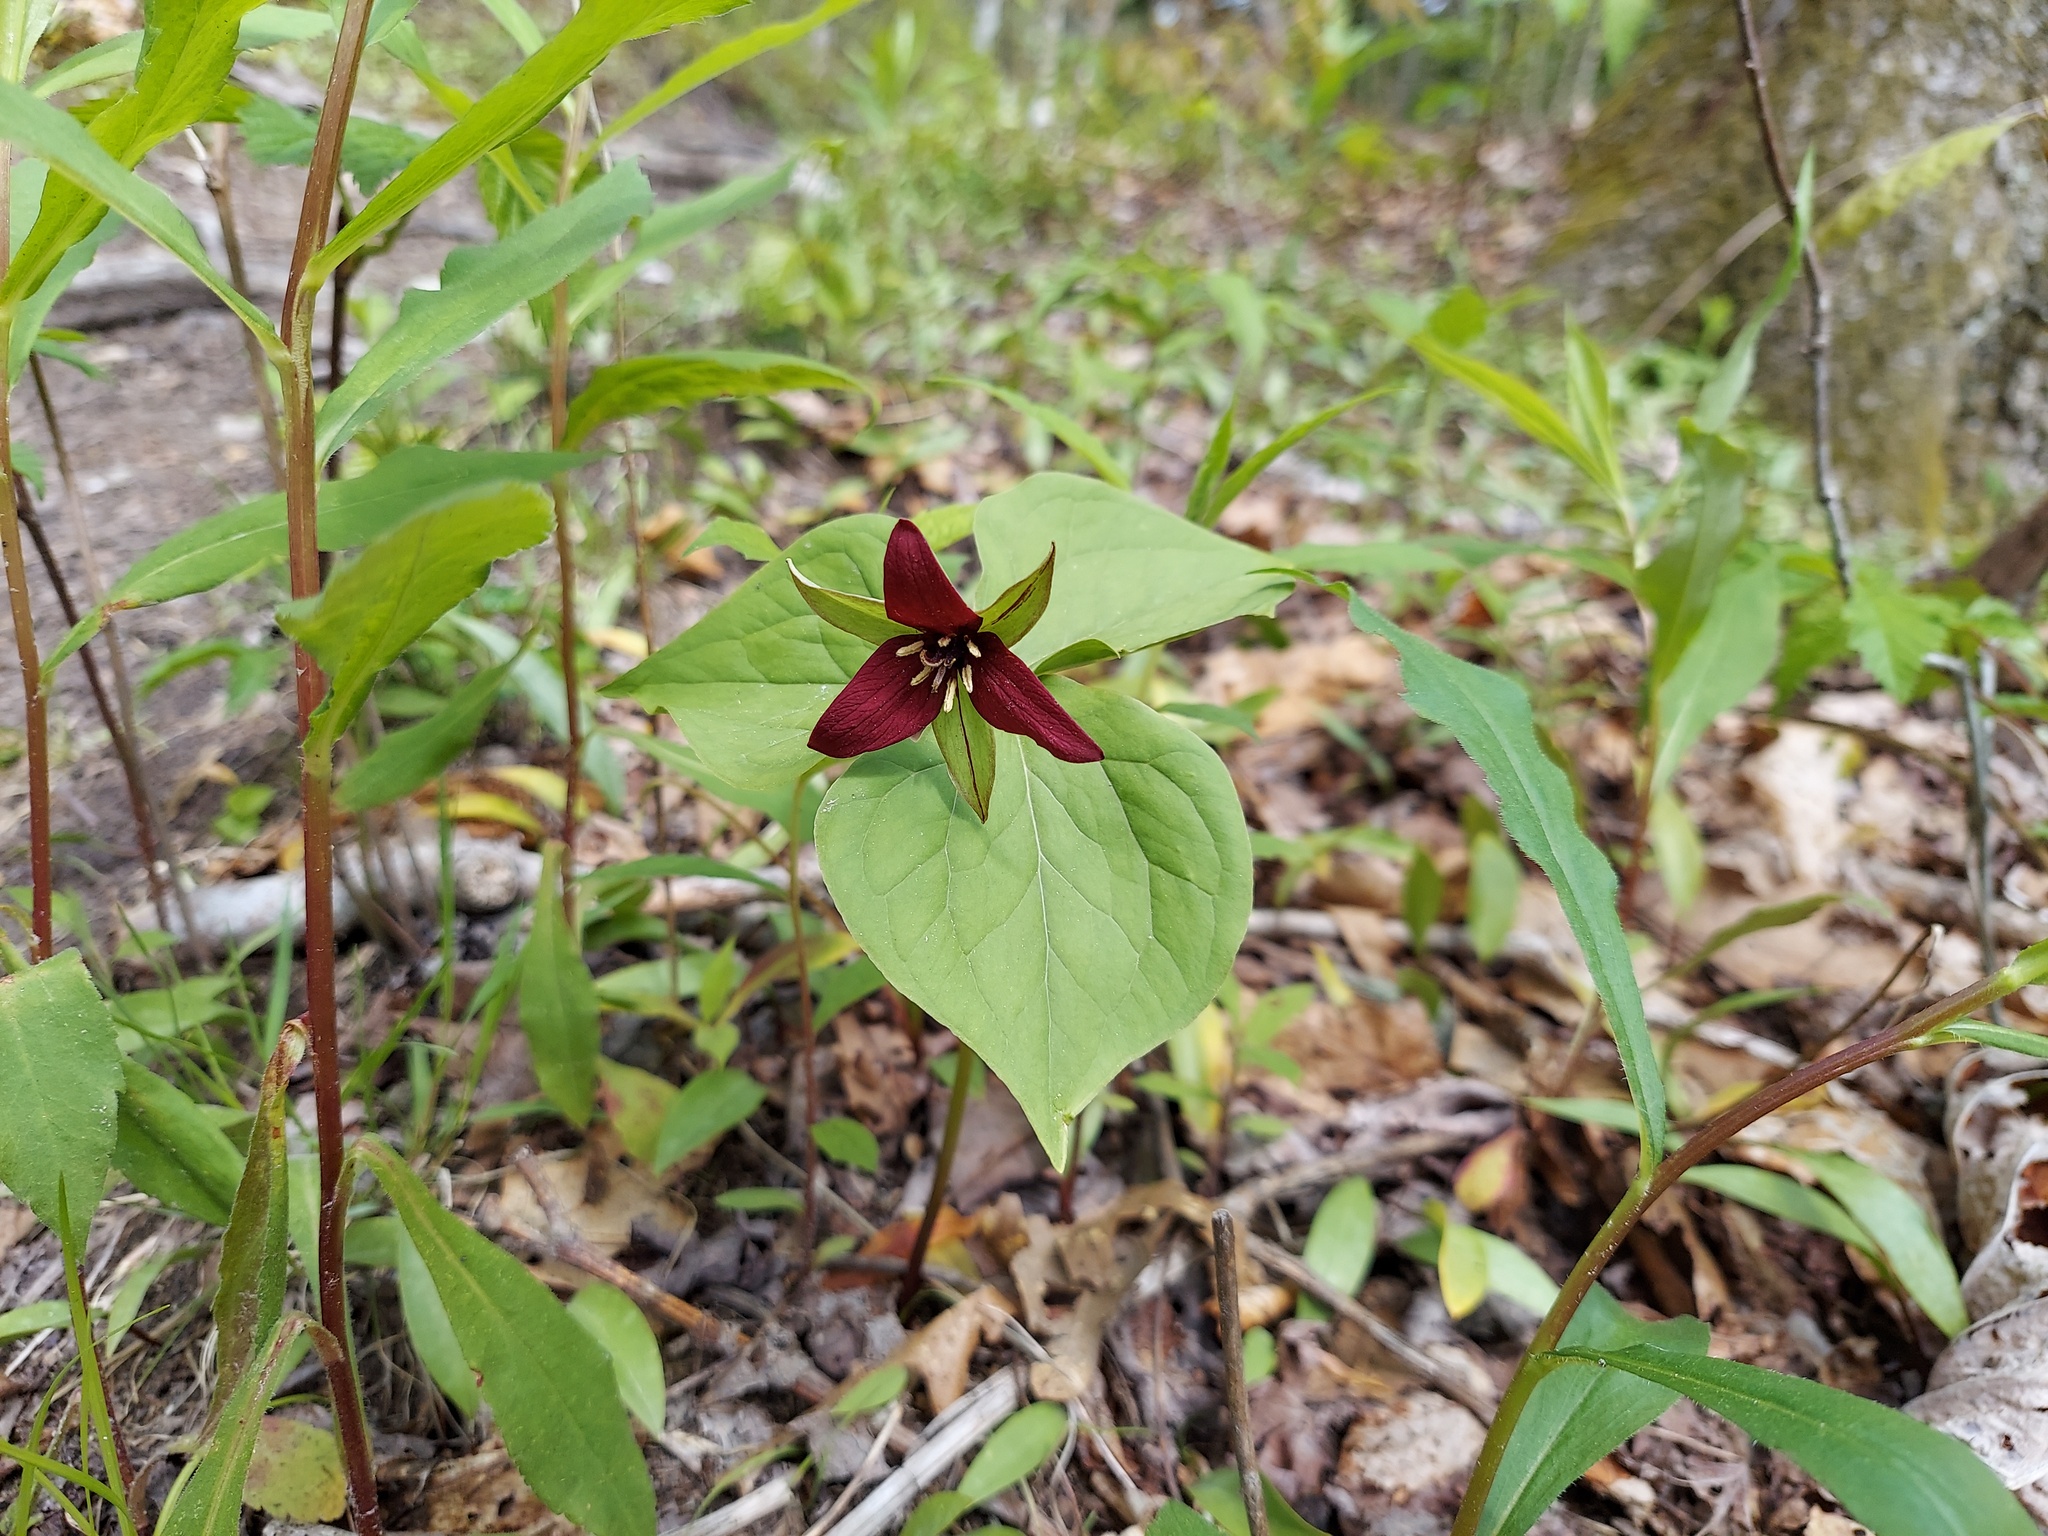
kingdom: Plantae
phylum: Tracheophyta
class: Liliopsida
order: Liliales
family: Melanthiaceae
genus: Trillium
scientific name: Trillium erectum
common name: Purple trillium
